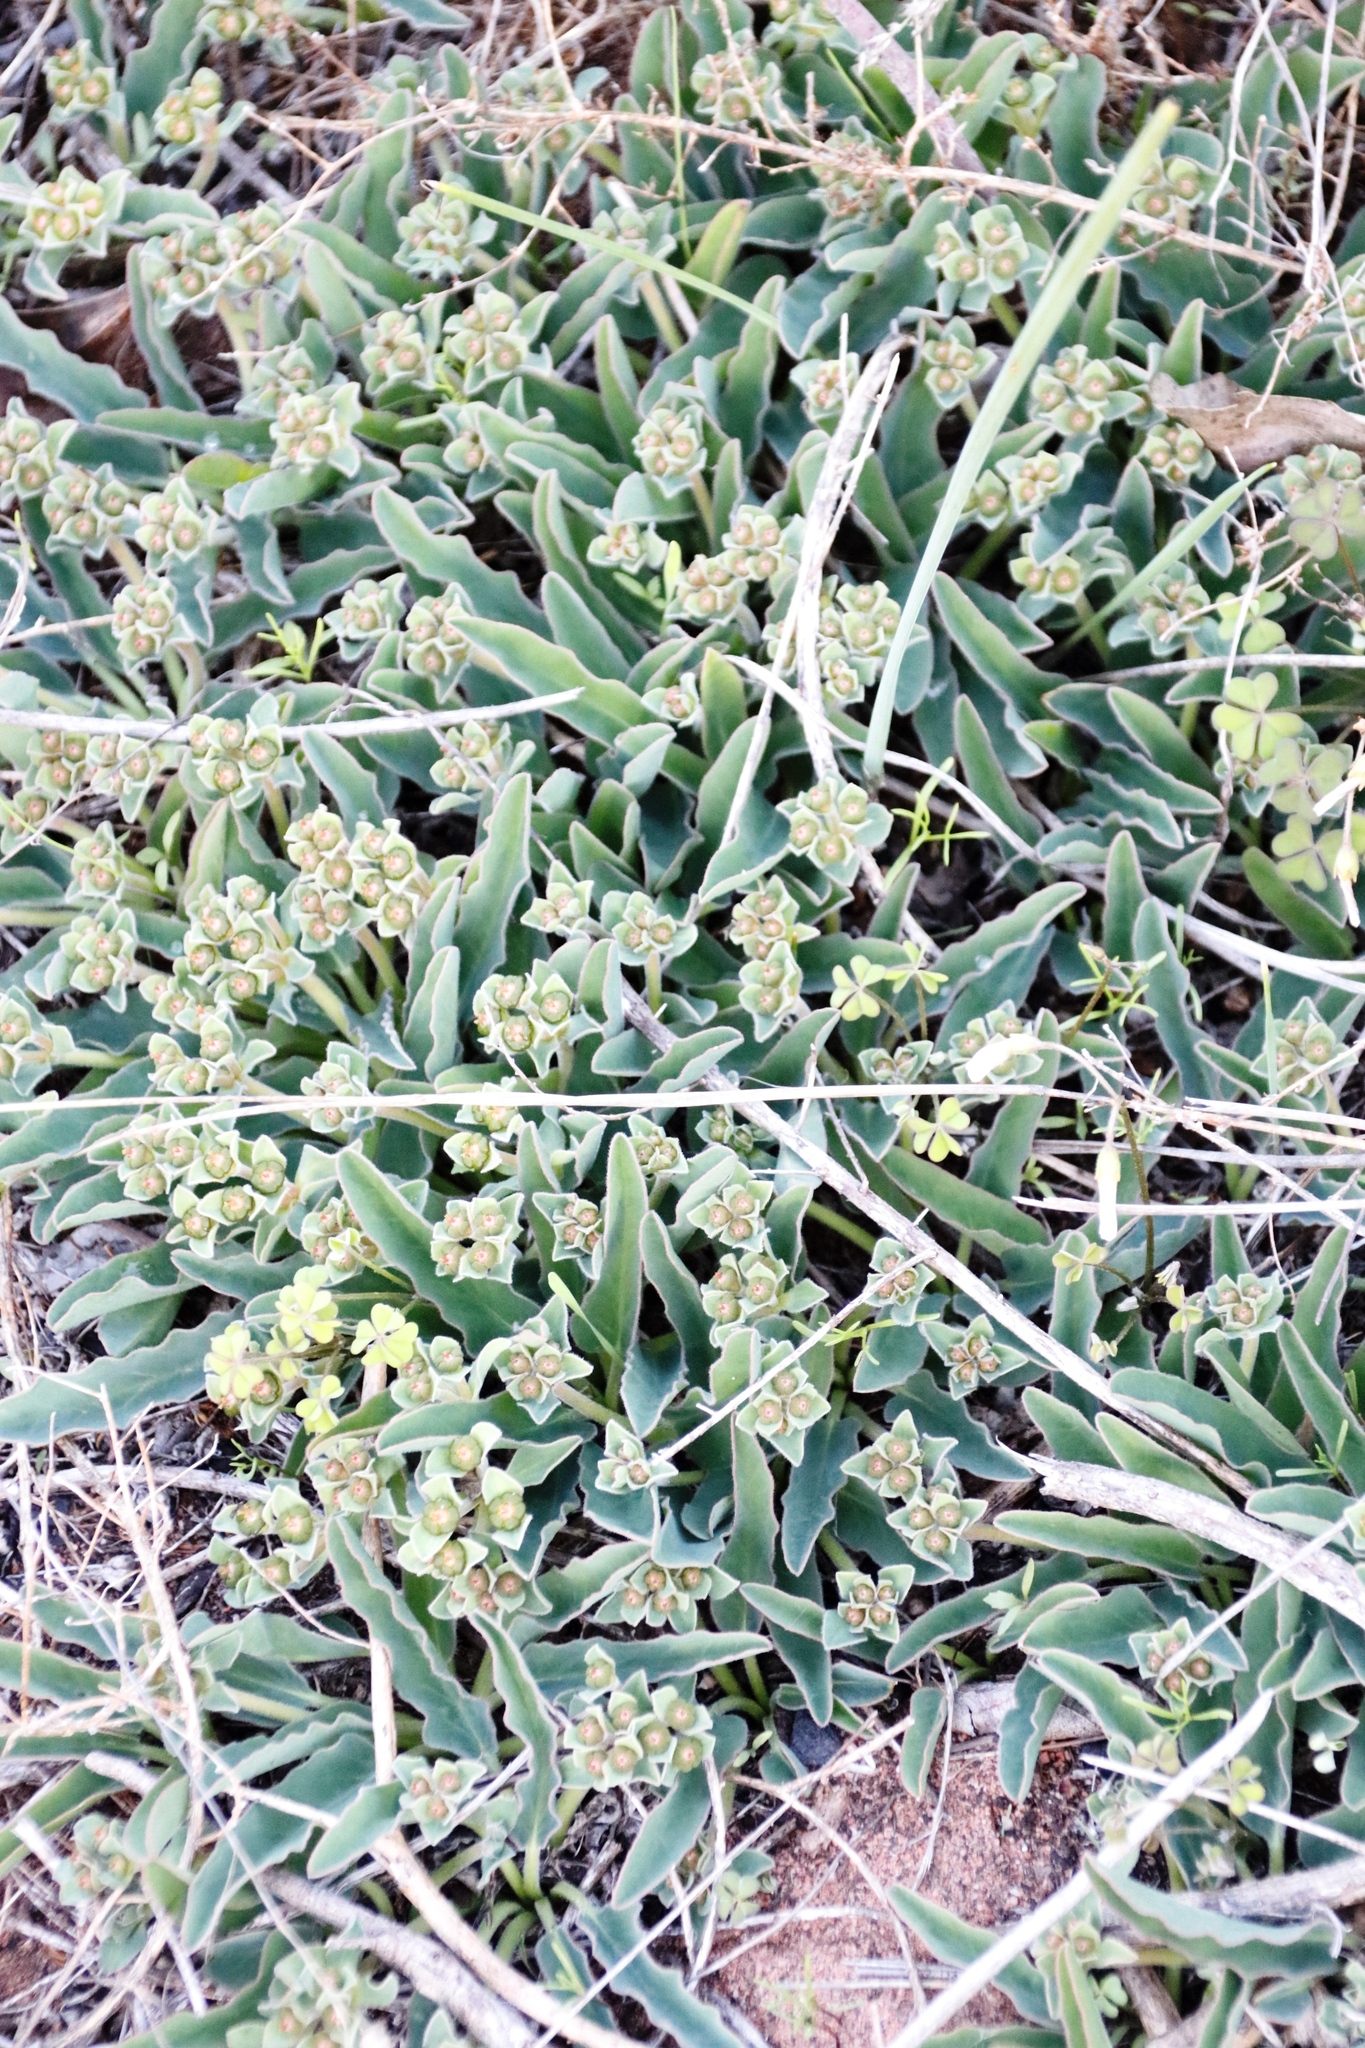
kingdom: Plantae
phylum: Tracheophyta
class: Magnoliopsida
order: Malpighiales
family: Euphorbiaceae
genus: Euphorbia
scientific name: Euphorbia tuberosa
